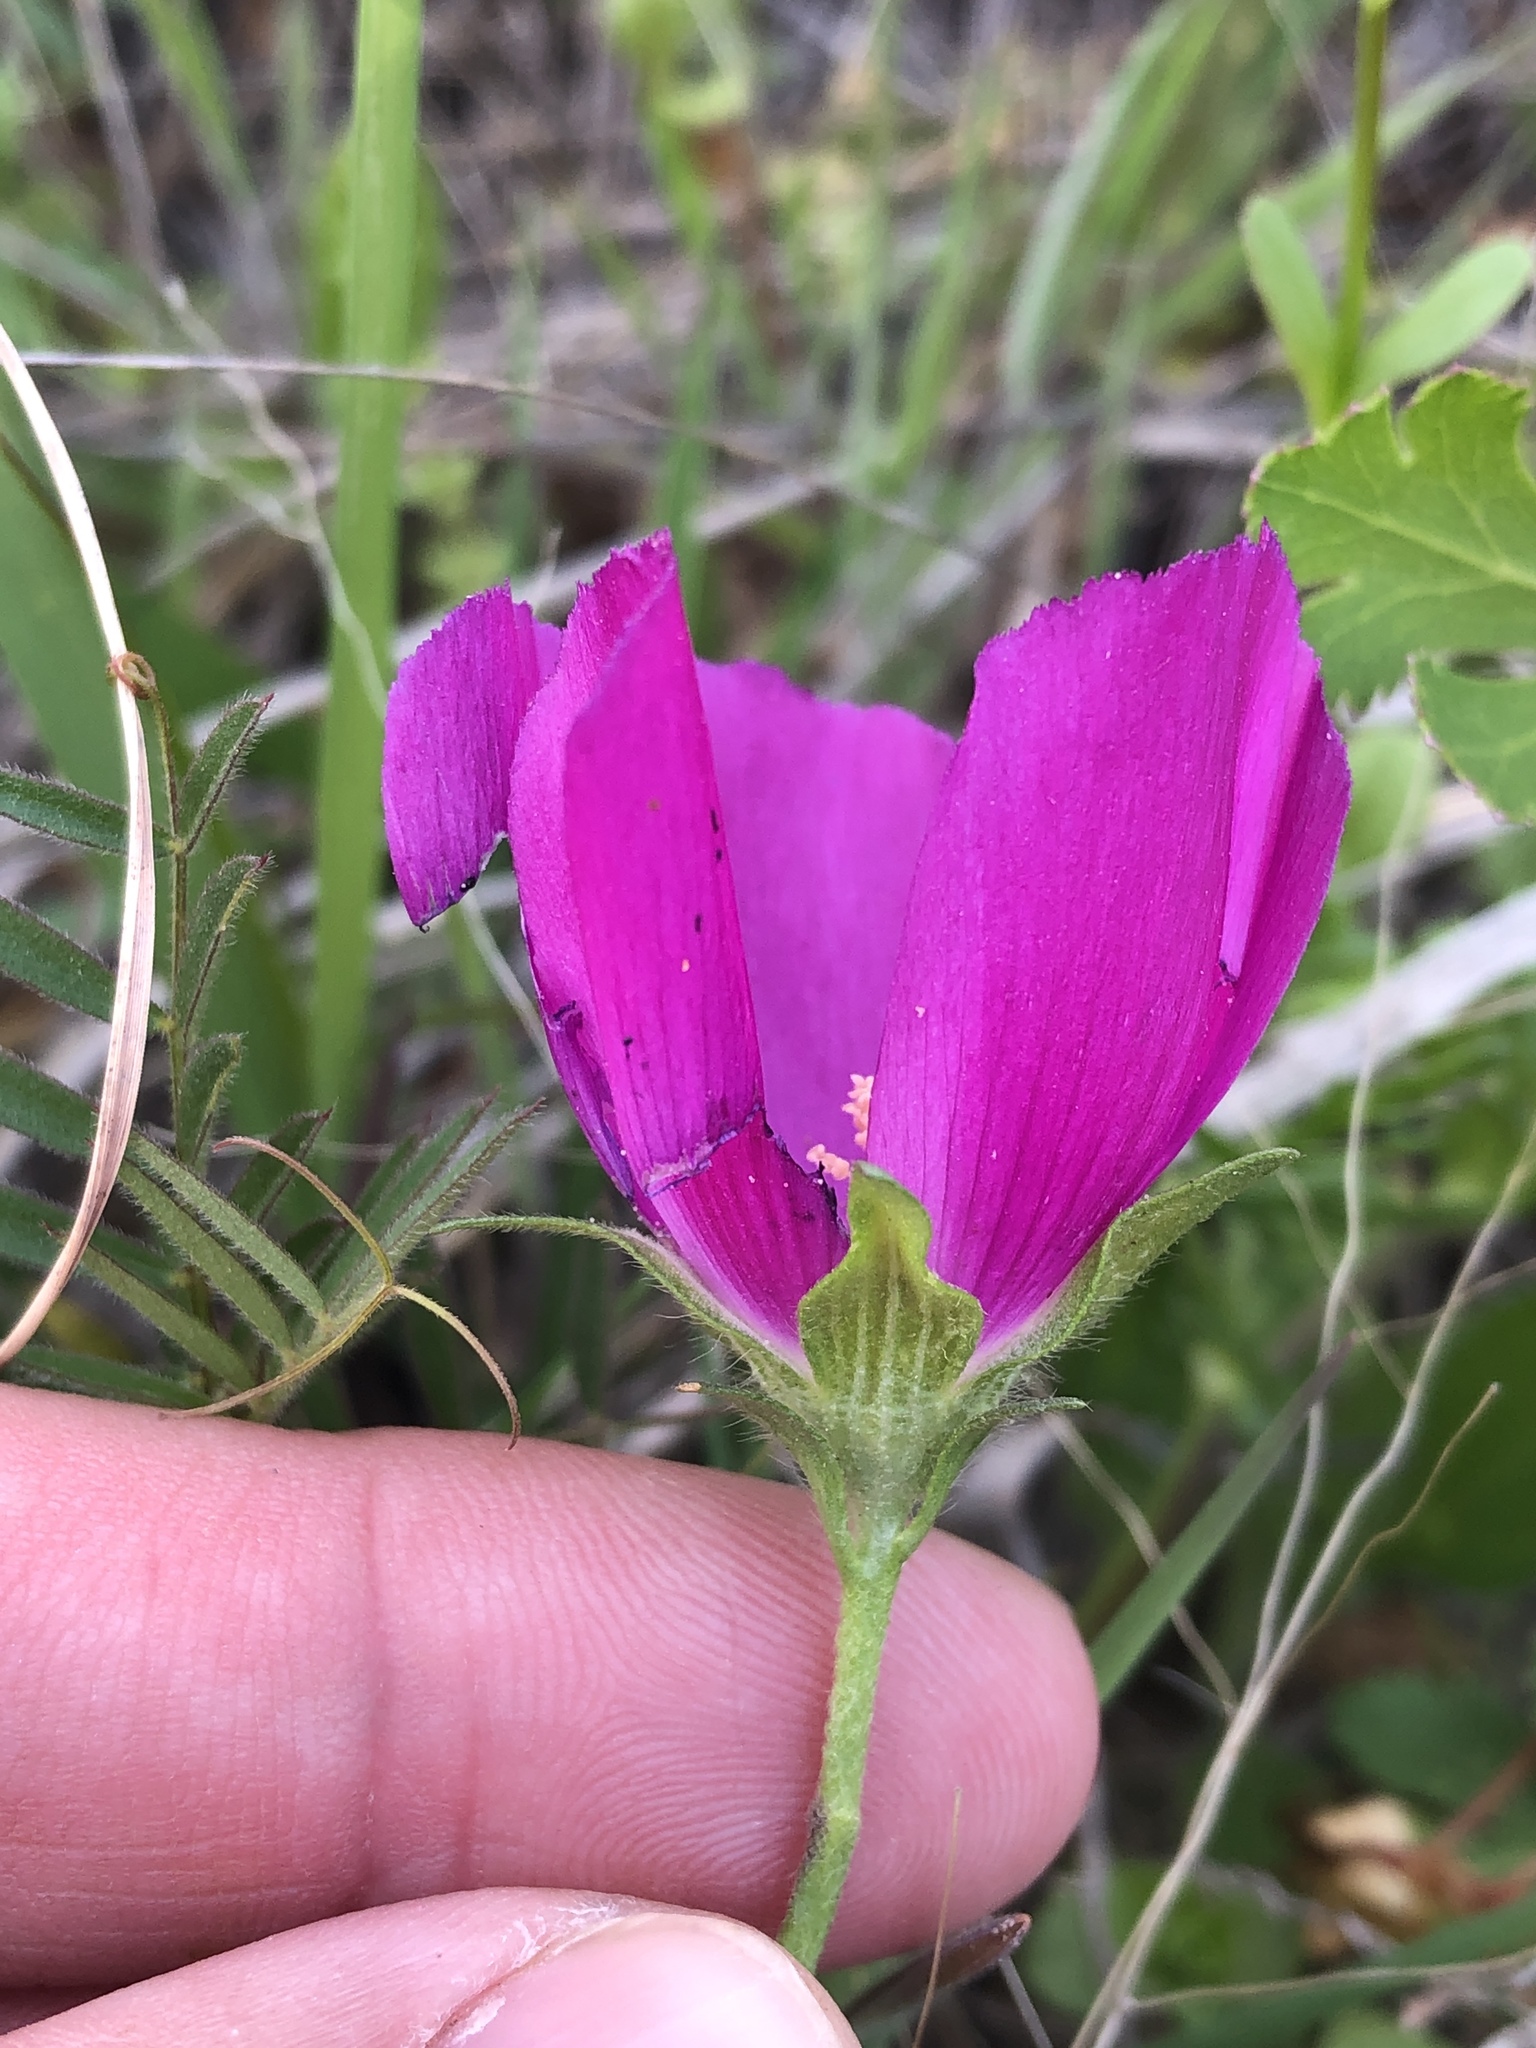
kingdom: Plantae
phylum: Tracheophyta
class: Magnoliopsida
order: Malvales
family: Malvaceae
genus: Callirhoe
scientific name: Callirhoe involucrata
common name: Purple poppy-mallow
